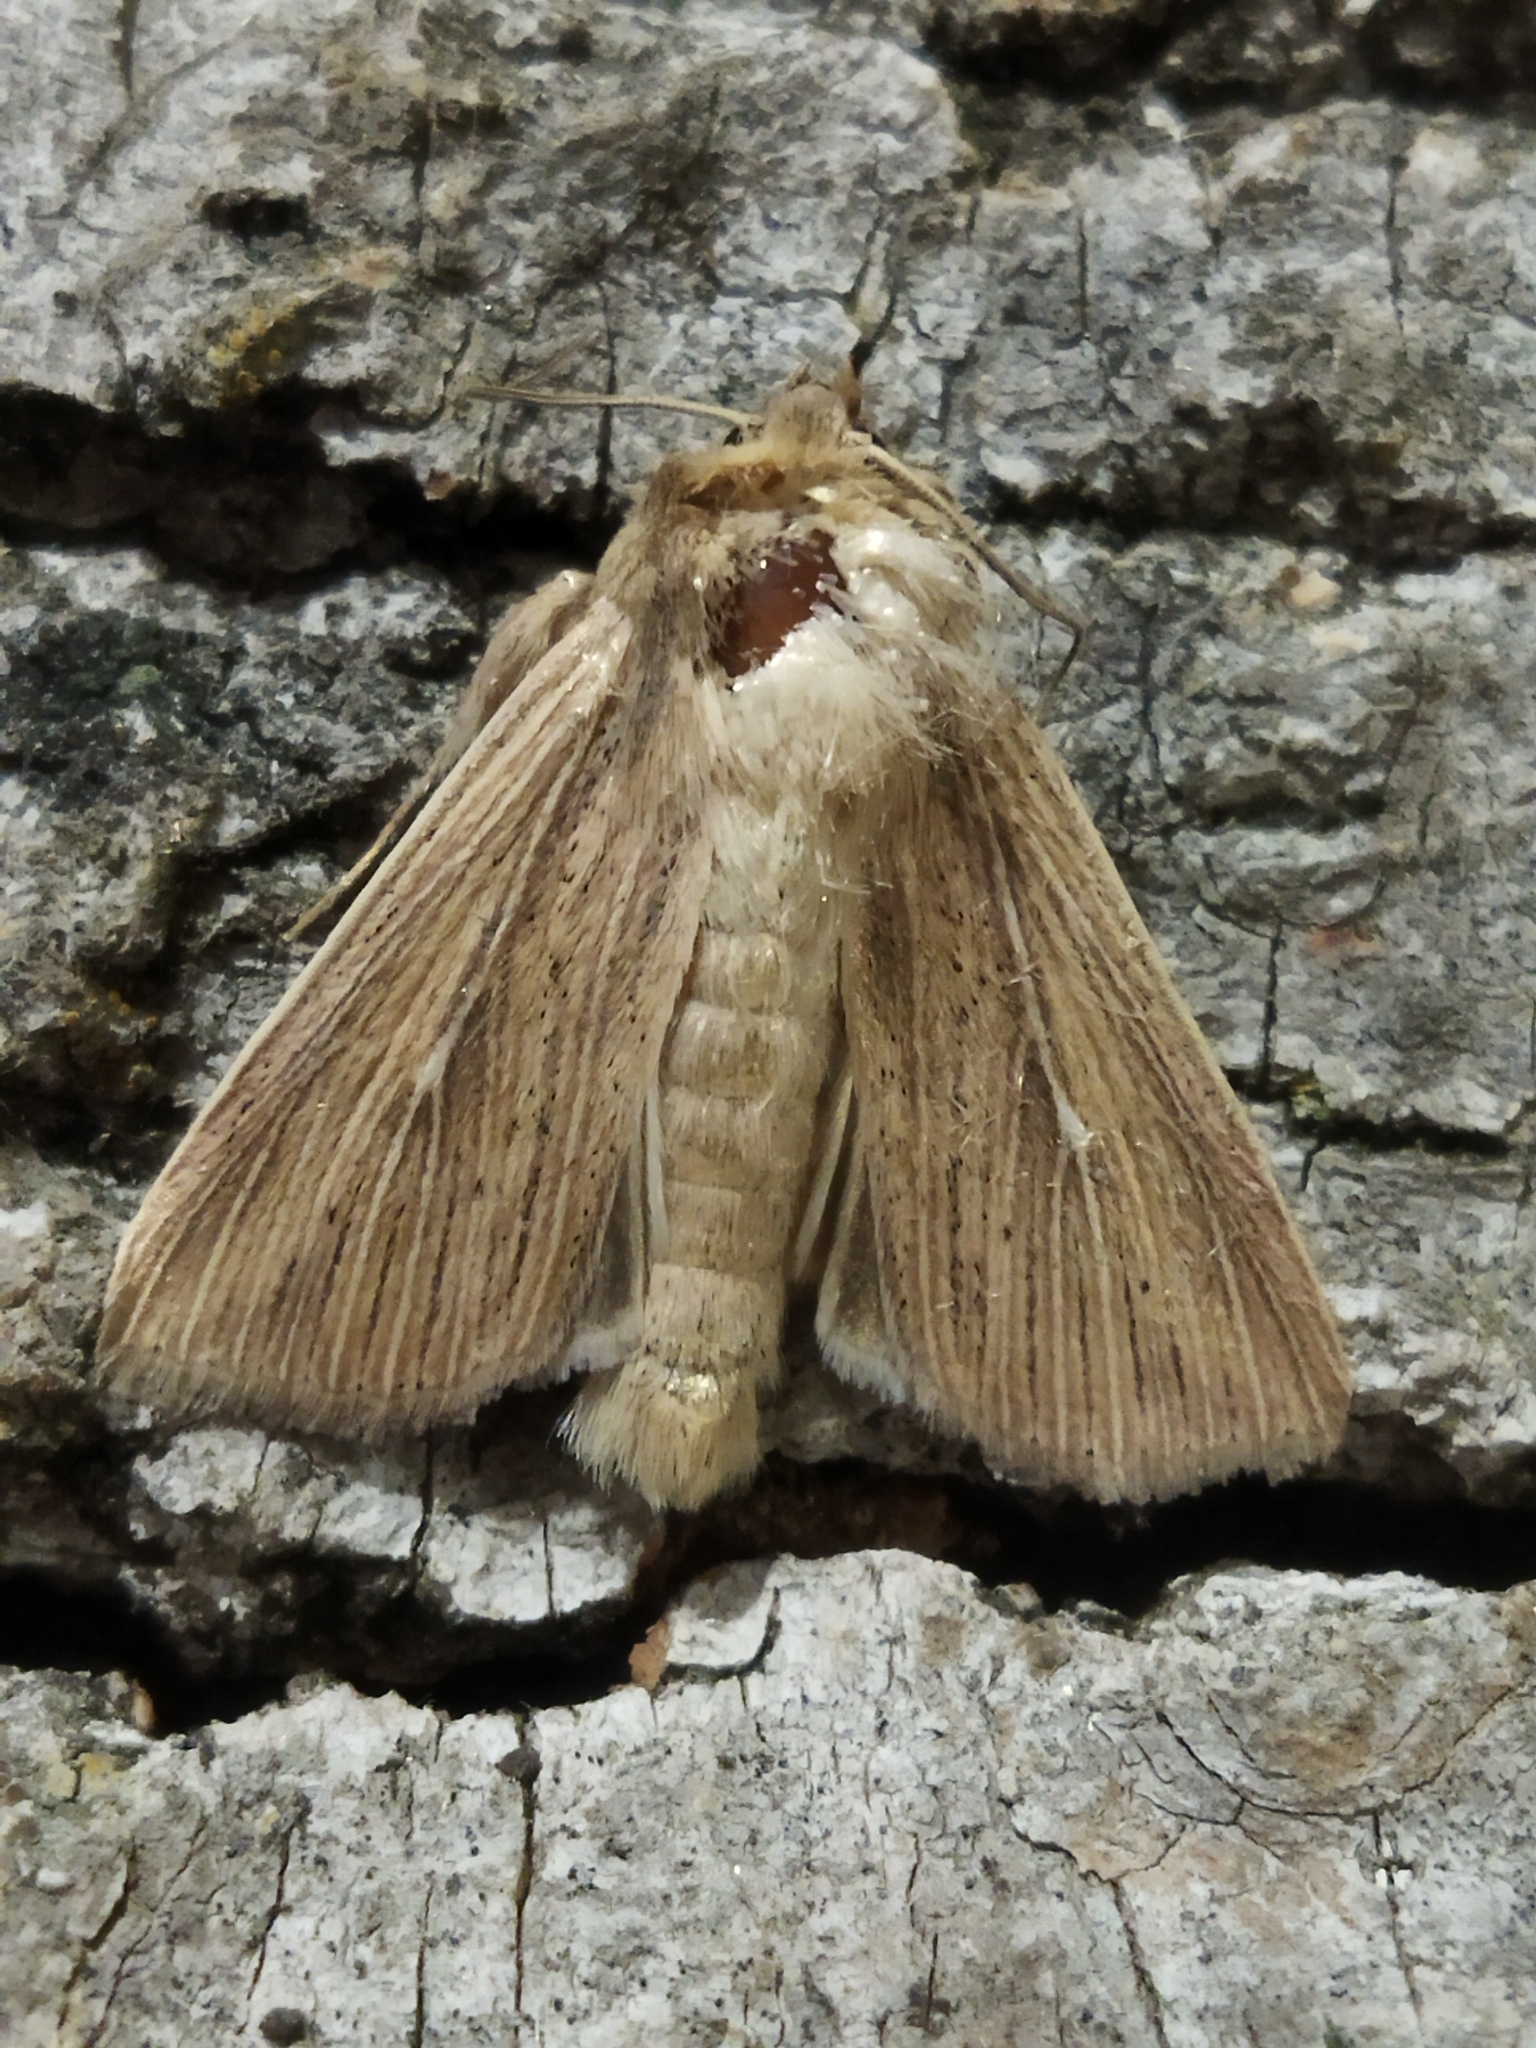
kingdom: Animalia
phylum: Arthropoda
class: Insecta
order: Lepidoptera
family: Noctuidae
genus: Mythimna
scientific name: Mythimna congrua
